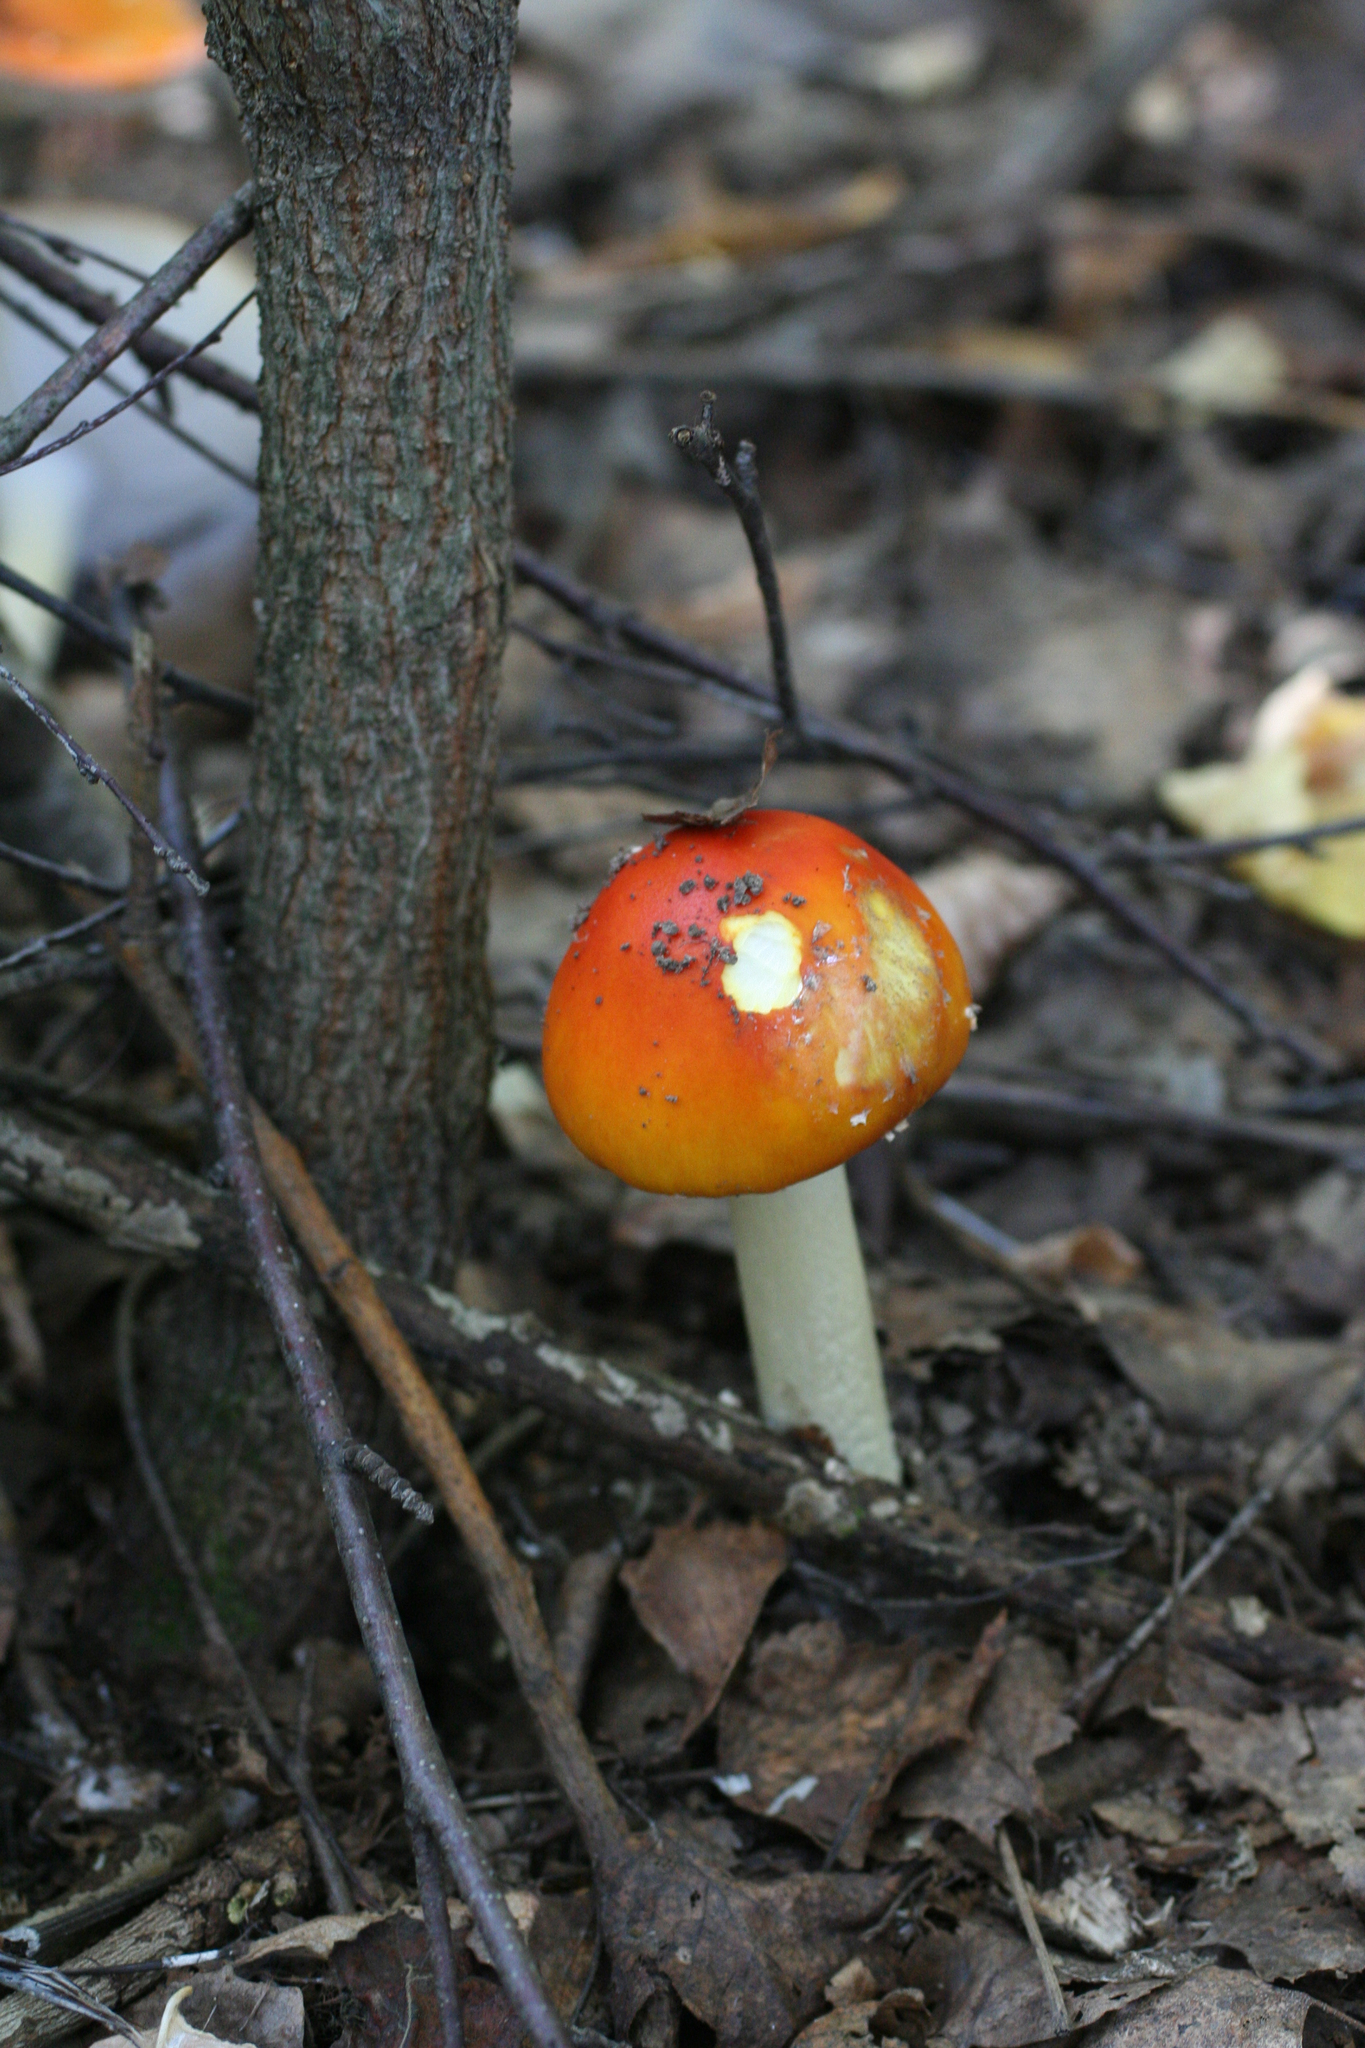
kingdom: Fungi
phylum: Basidiomycota
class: Agaricomycetes
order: Agaricales
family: Amanitaceae
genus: Amanita
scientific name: Amanita muscaria
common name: Fly agaric
